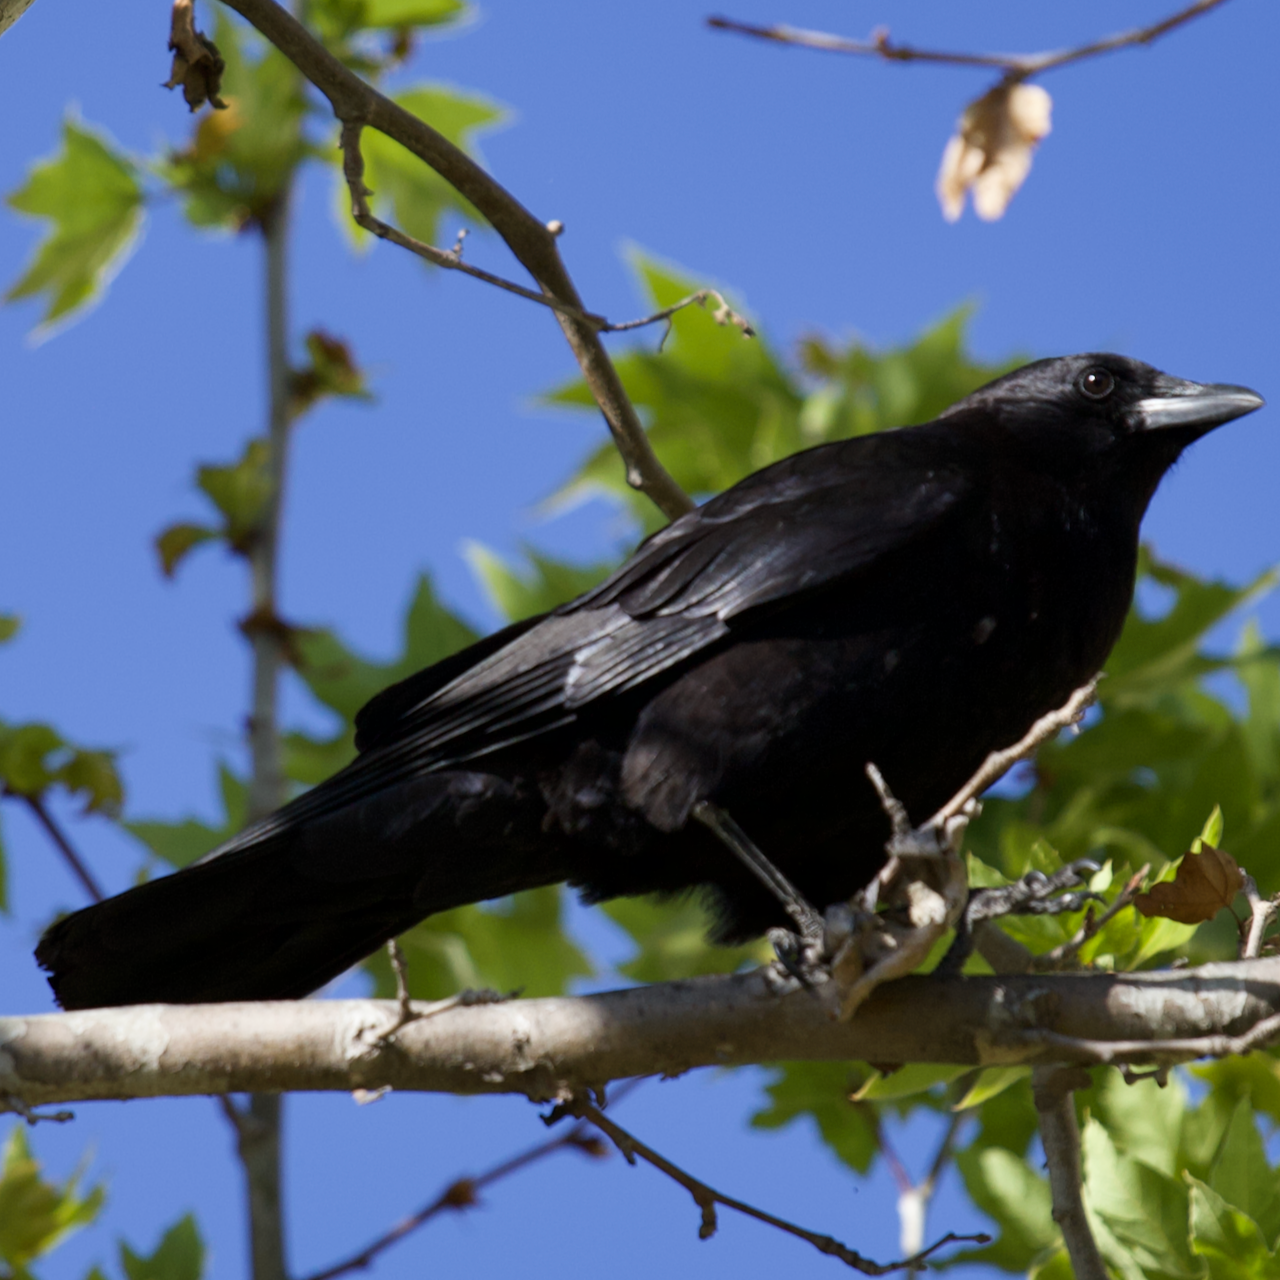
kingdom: Animalia
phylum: Chordata
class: Aves
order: Passeriformes
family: Corvidae
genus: Corvus
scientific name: Corvus brachyrhynchos
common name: American crow
